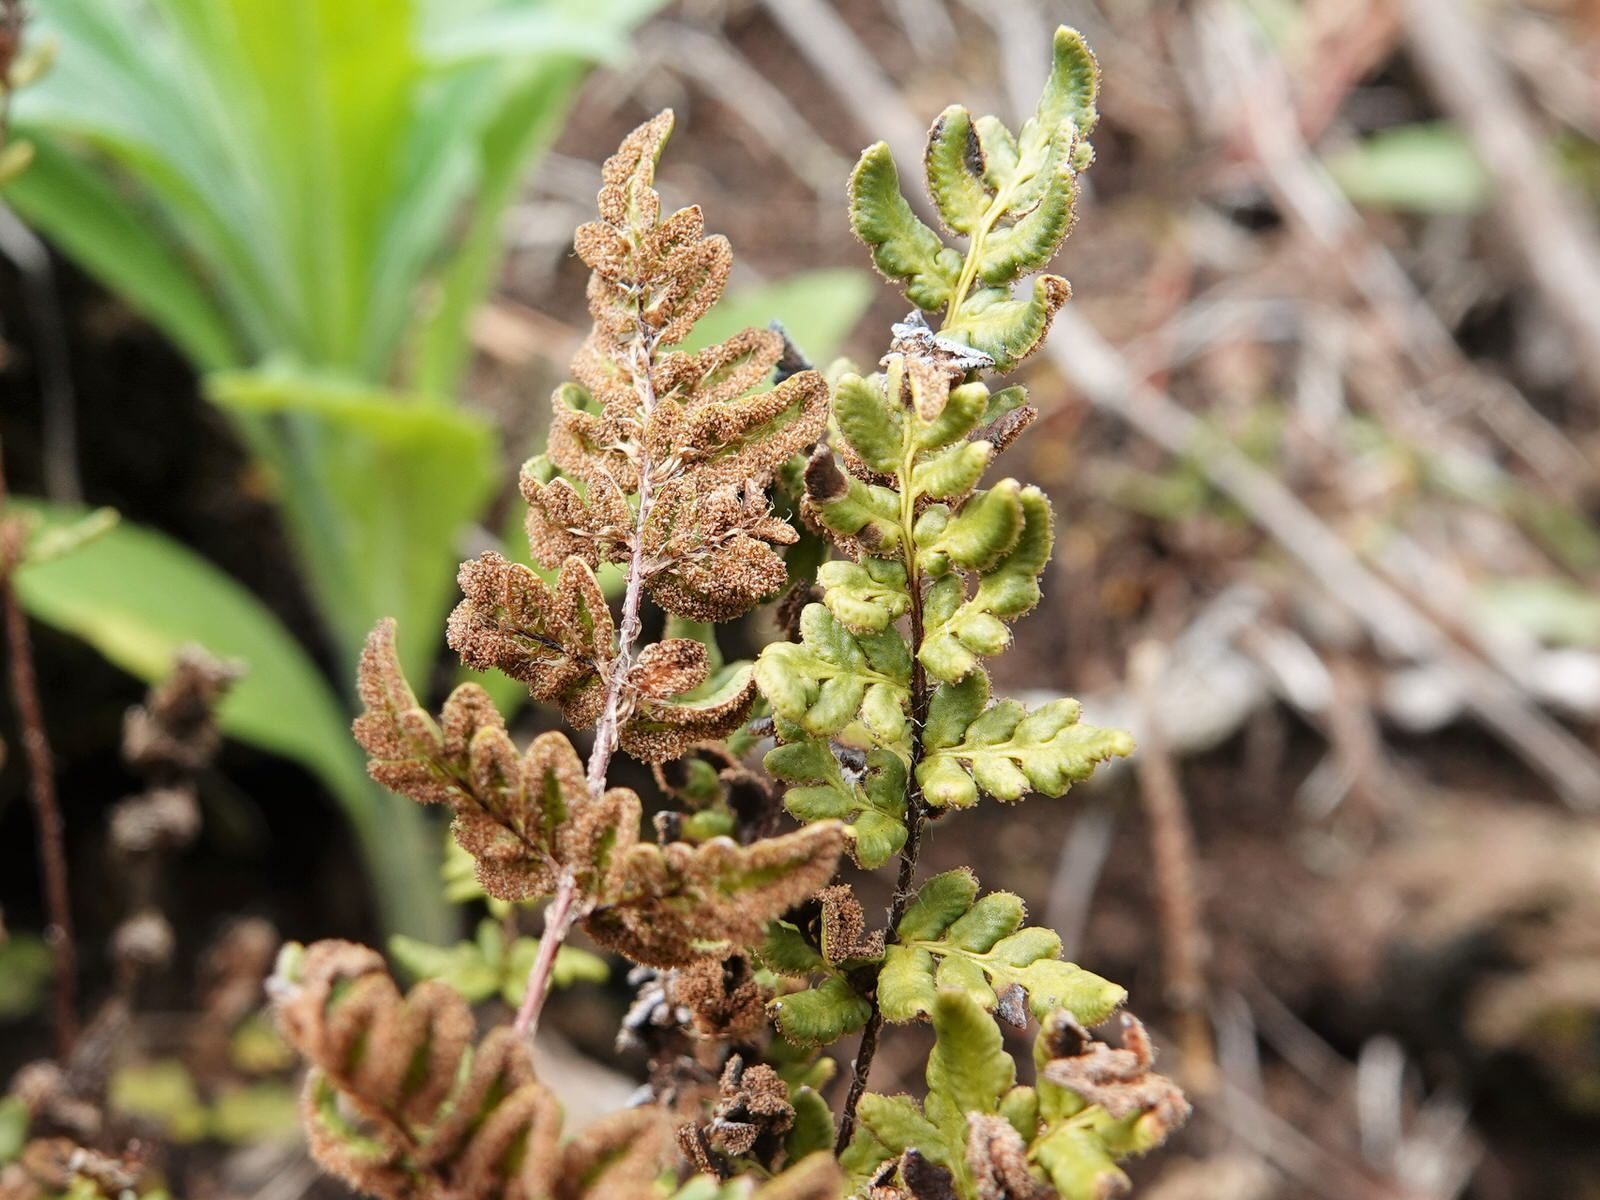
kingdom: Plantae
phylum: Tracheophyta
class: Polypodiopsida
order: Polypodiales
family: Pteridaceae
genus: Cheilanthes
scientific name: Cheilanthes distans
